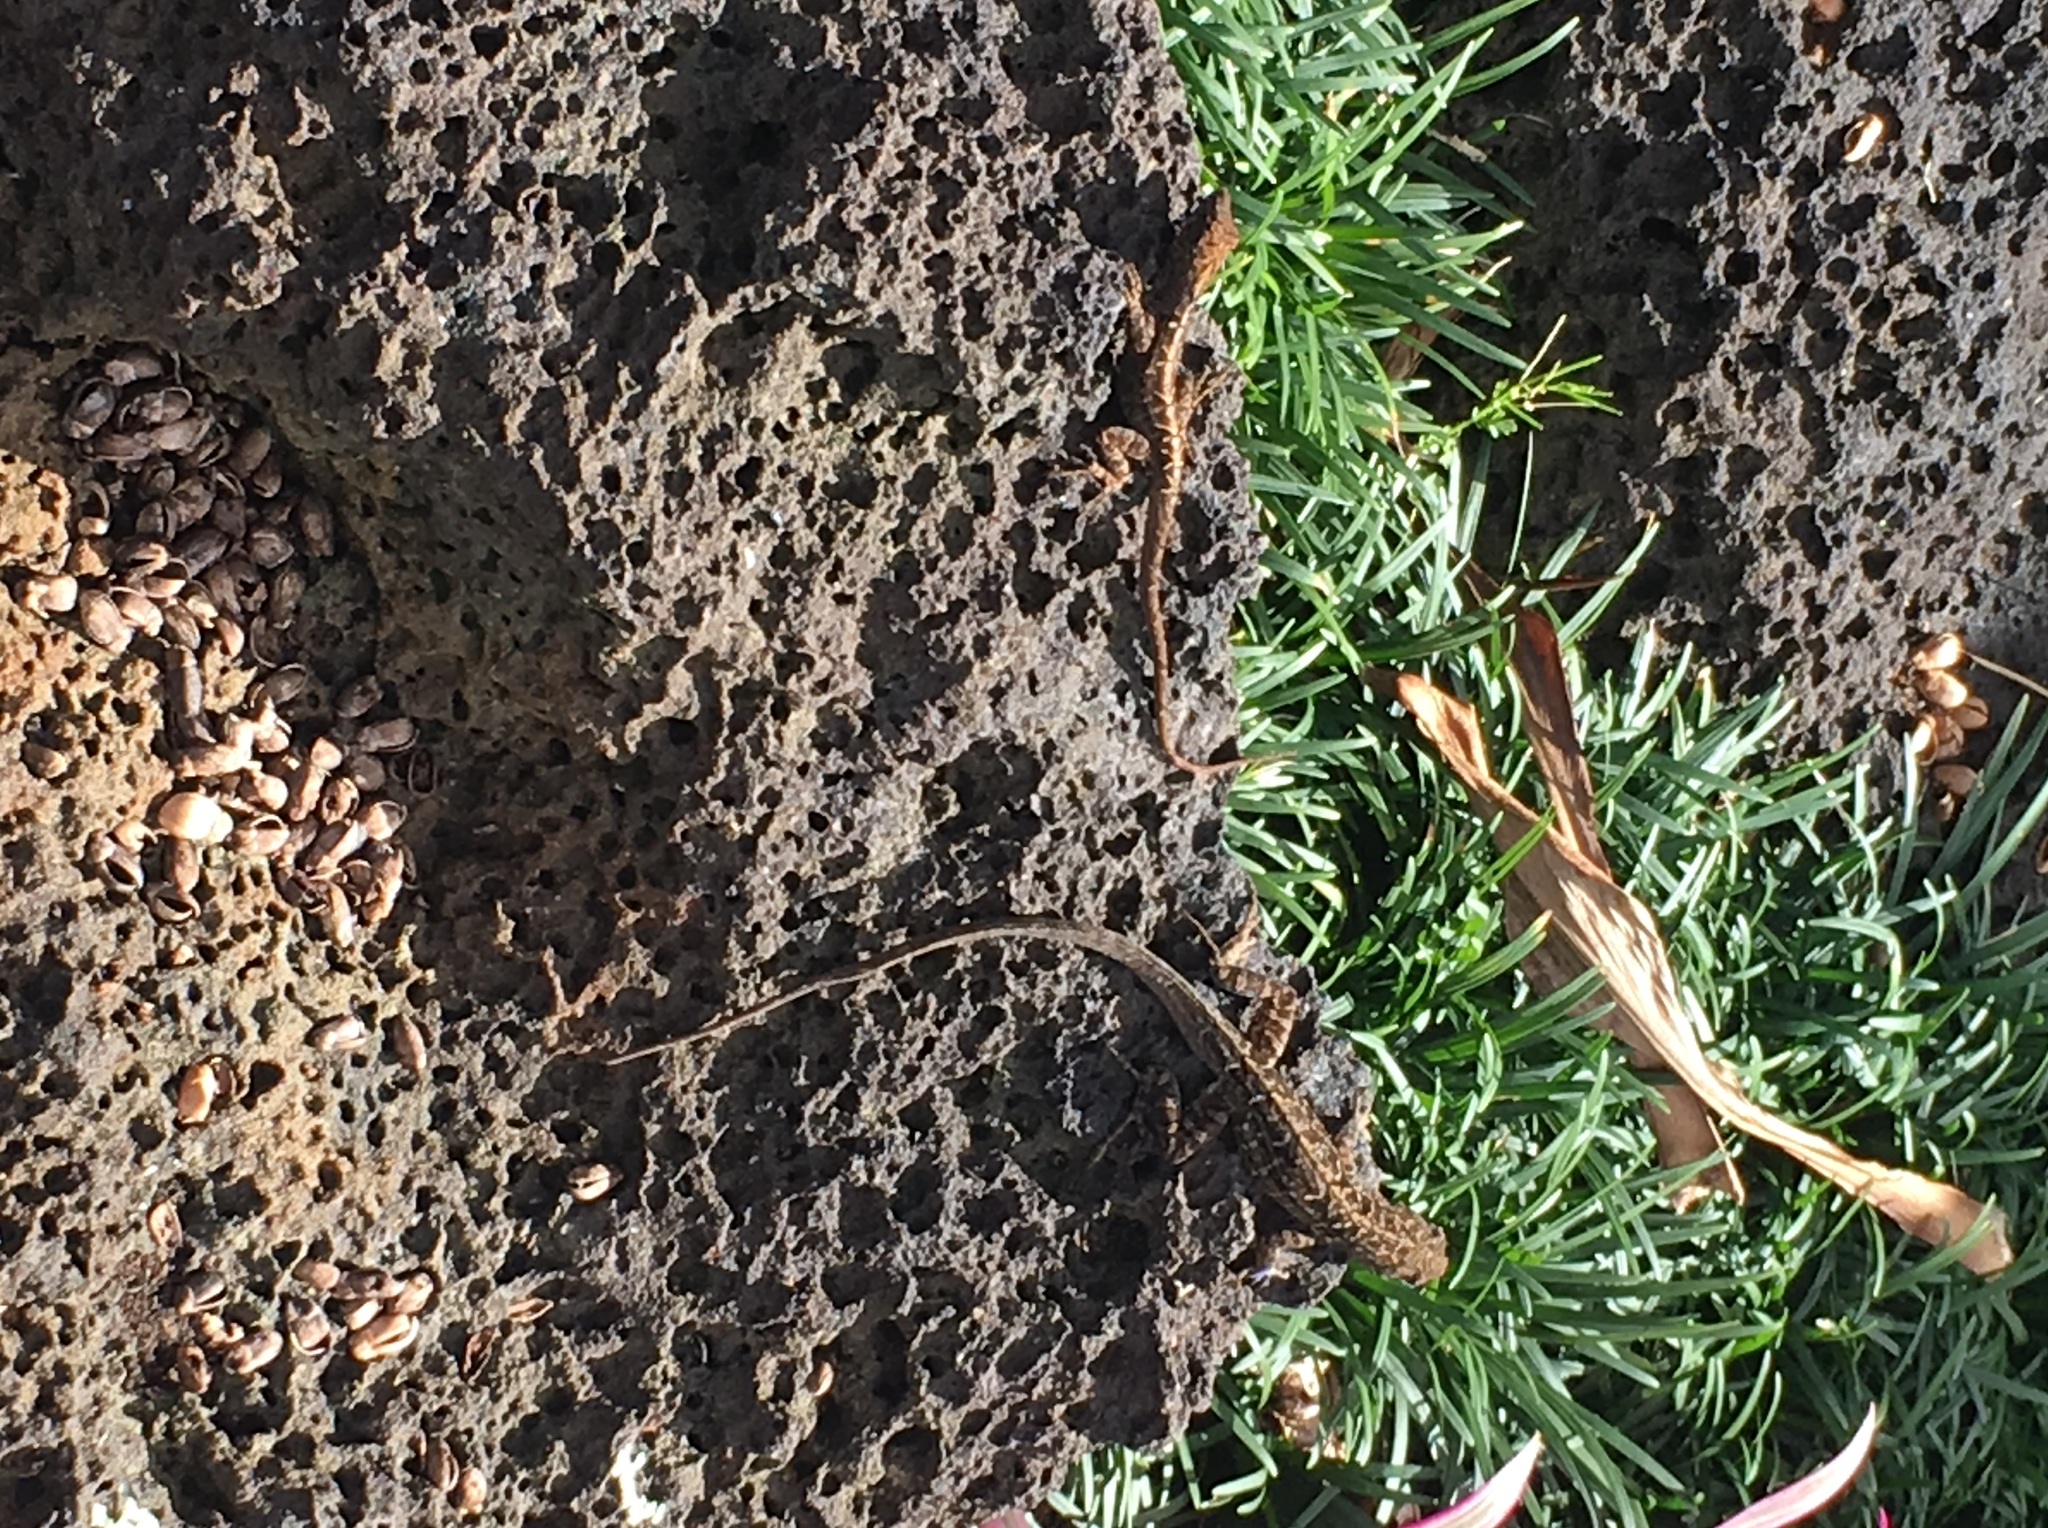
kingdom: Animalia
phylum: Chordata
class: Squamata
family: Dactyloidae
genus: Anolis
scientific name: Anolis sagrei
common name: Brown anole
